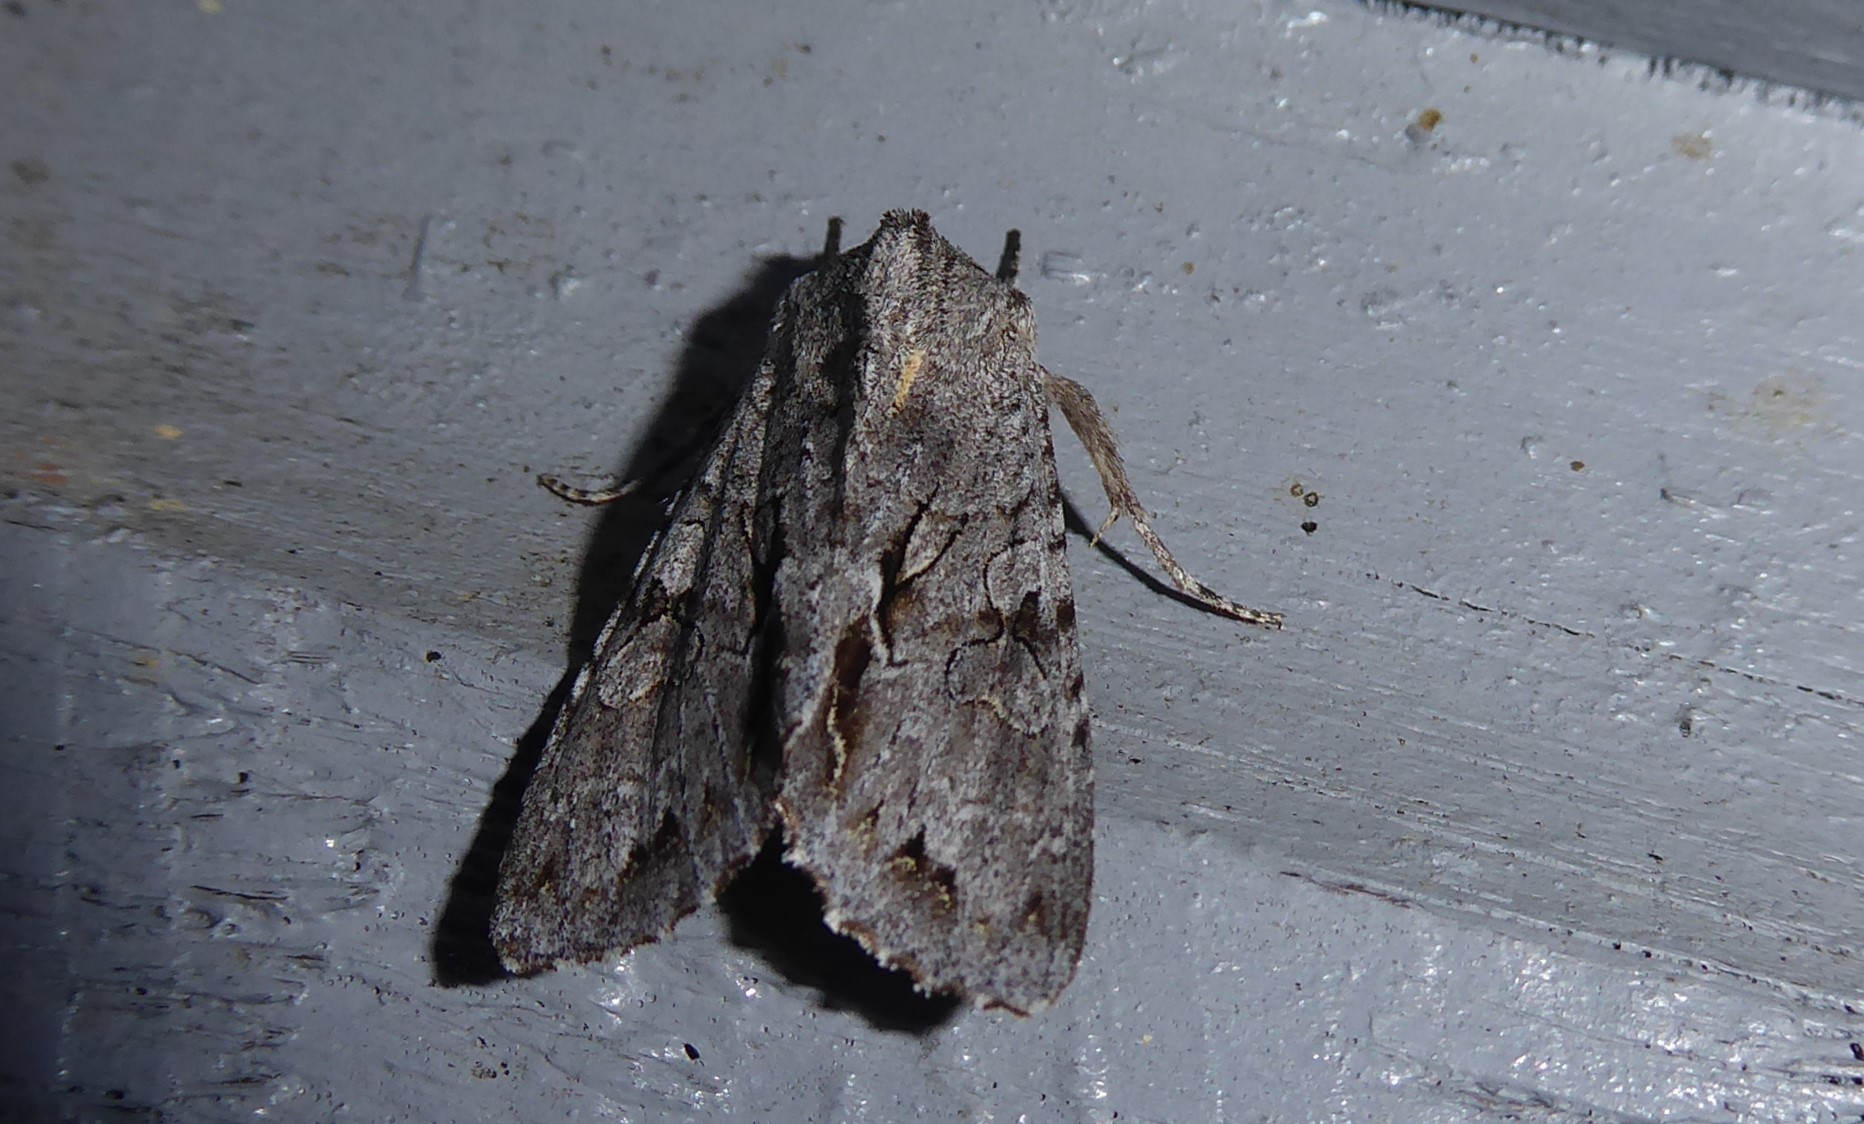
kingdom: Animalia
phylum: Arthropoda
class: Insecta
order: Lepidoptera
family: Noctuidae
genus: Ichneutica
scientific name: Ichneutica
